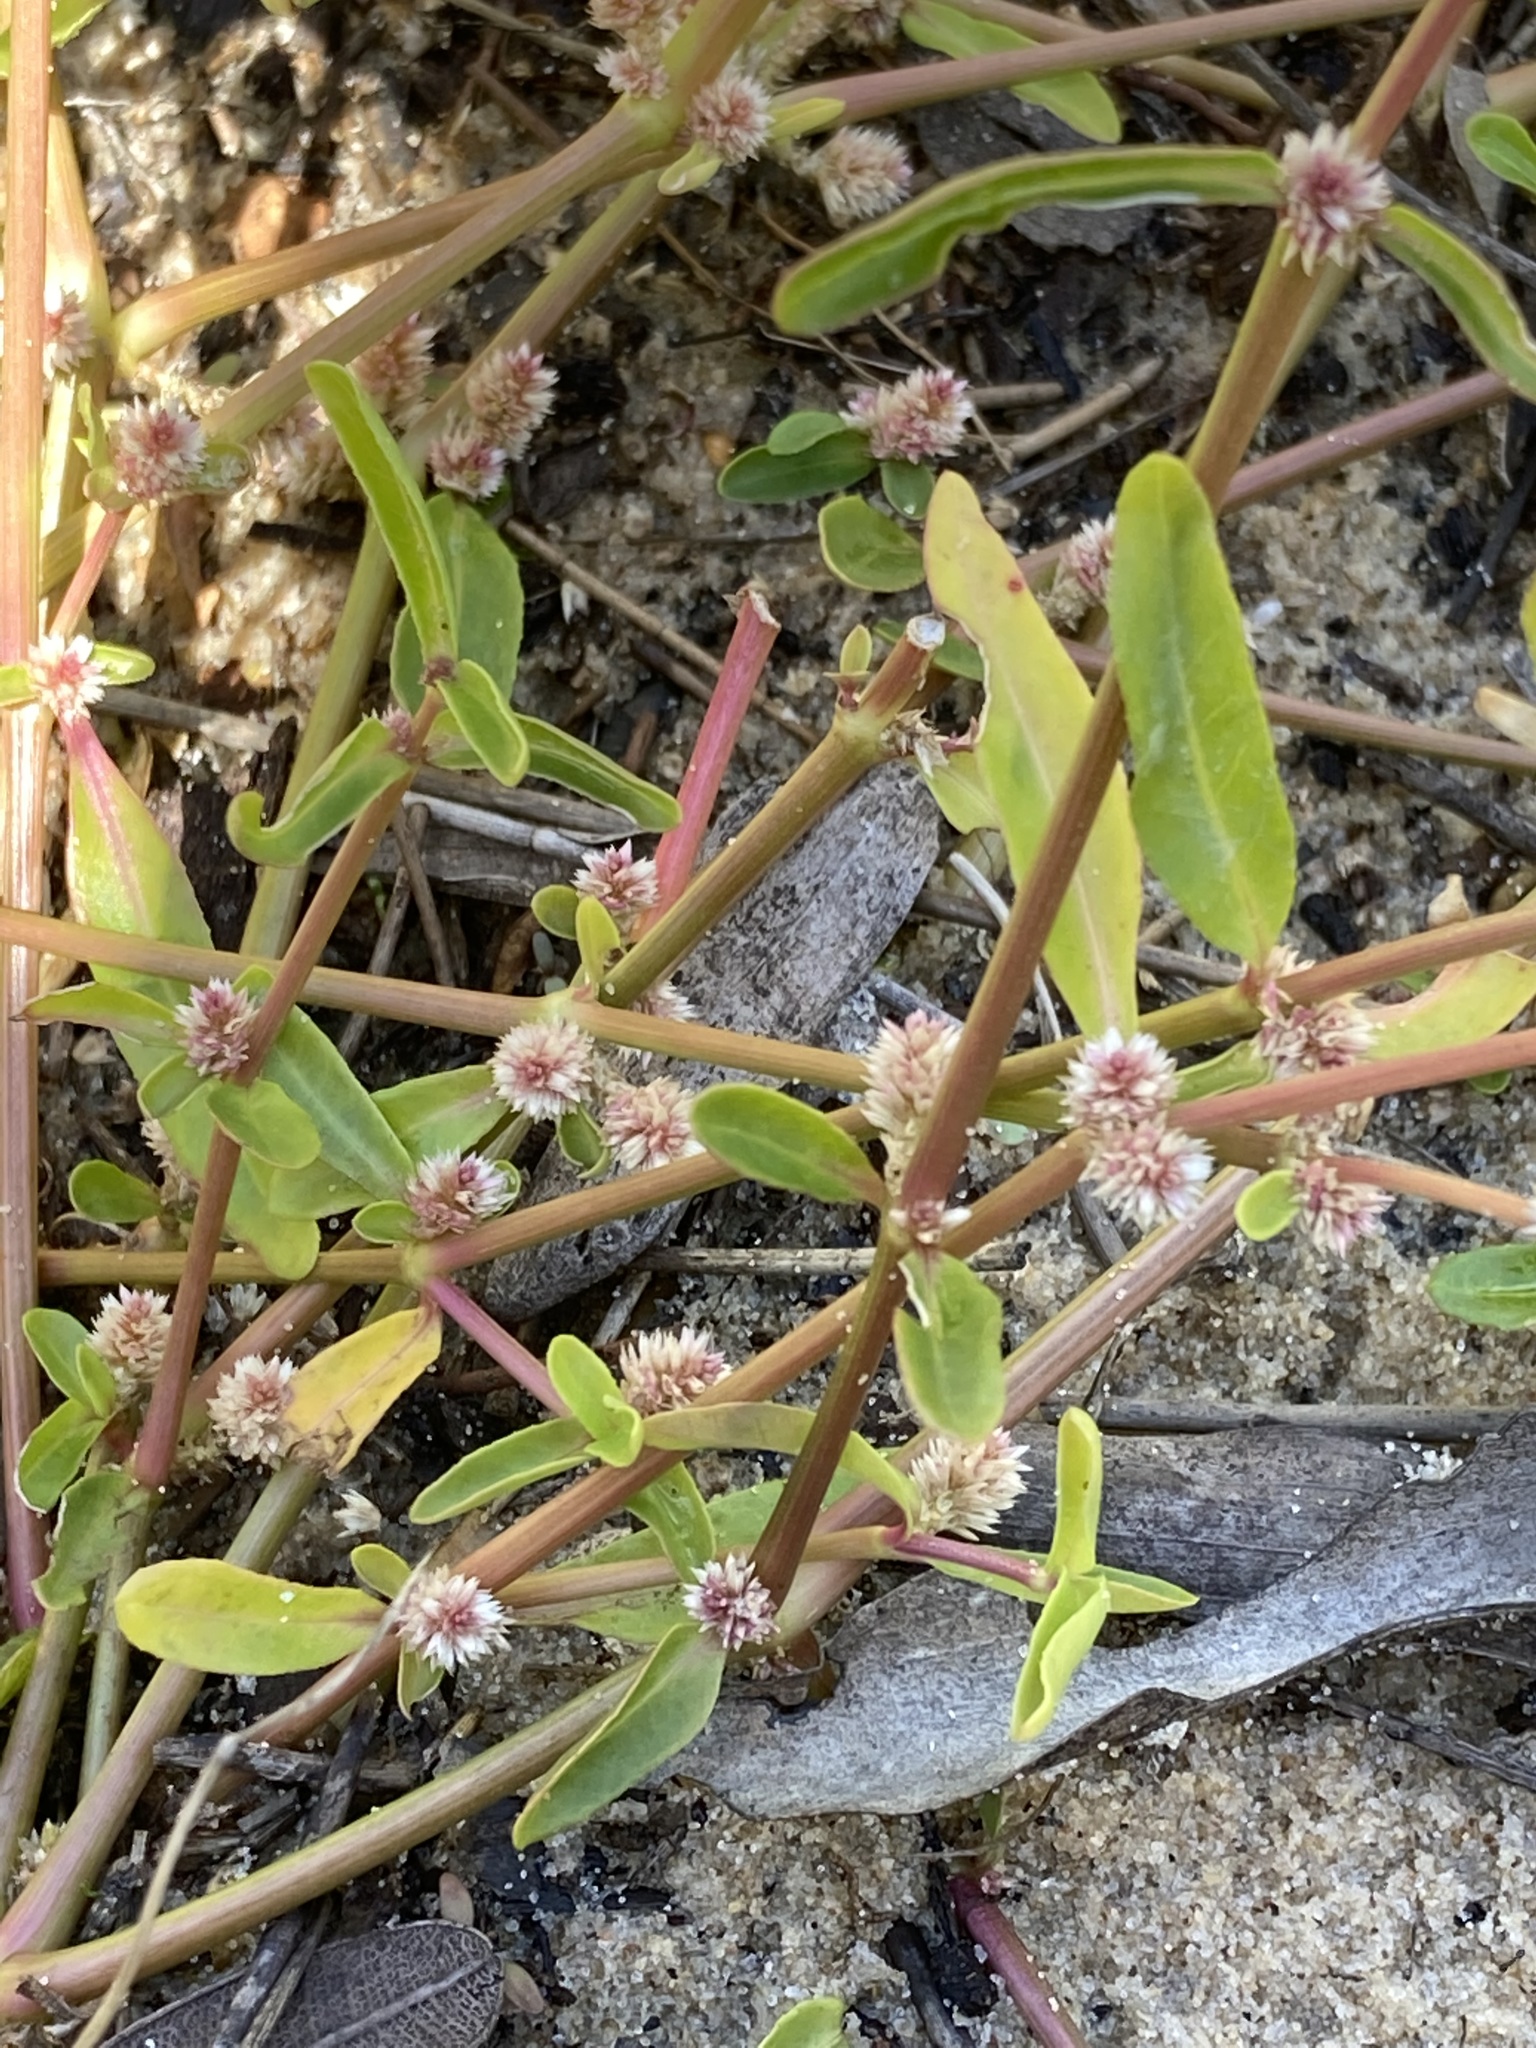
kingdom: Plantae
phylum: Tracheophyta
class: Magnoliopsida
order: Caryophyllales
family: Amaranthaceae
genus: Alternanthera
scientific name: Alternanthera denticulata
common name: Lesser joyweed
